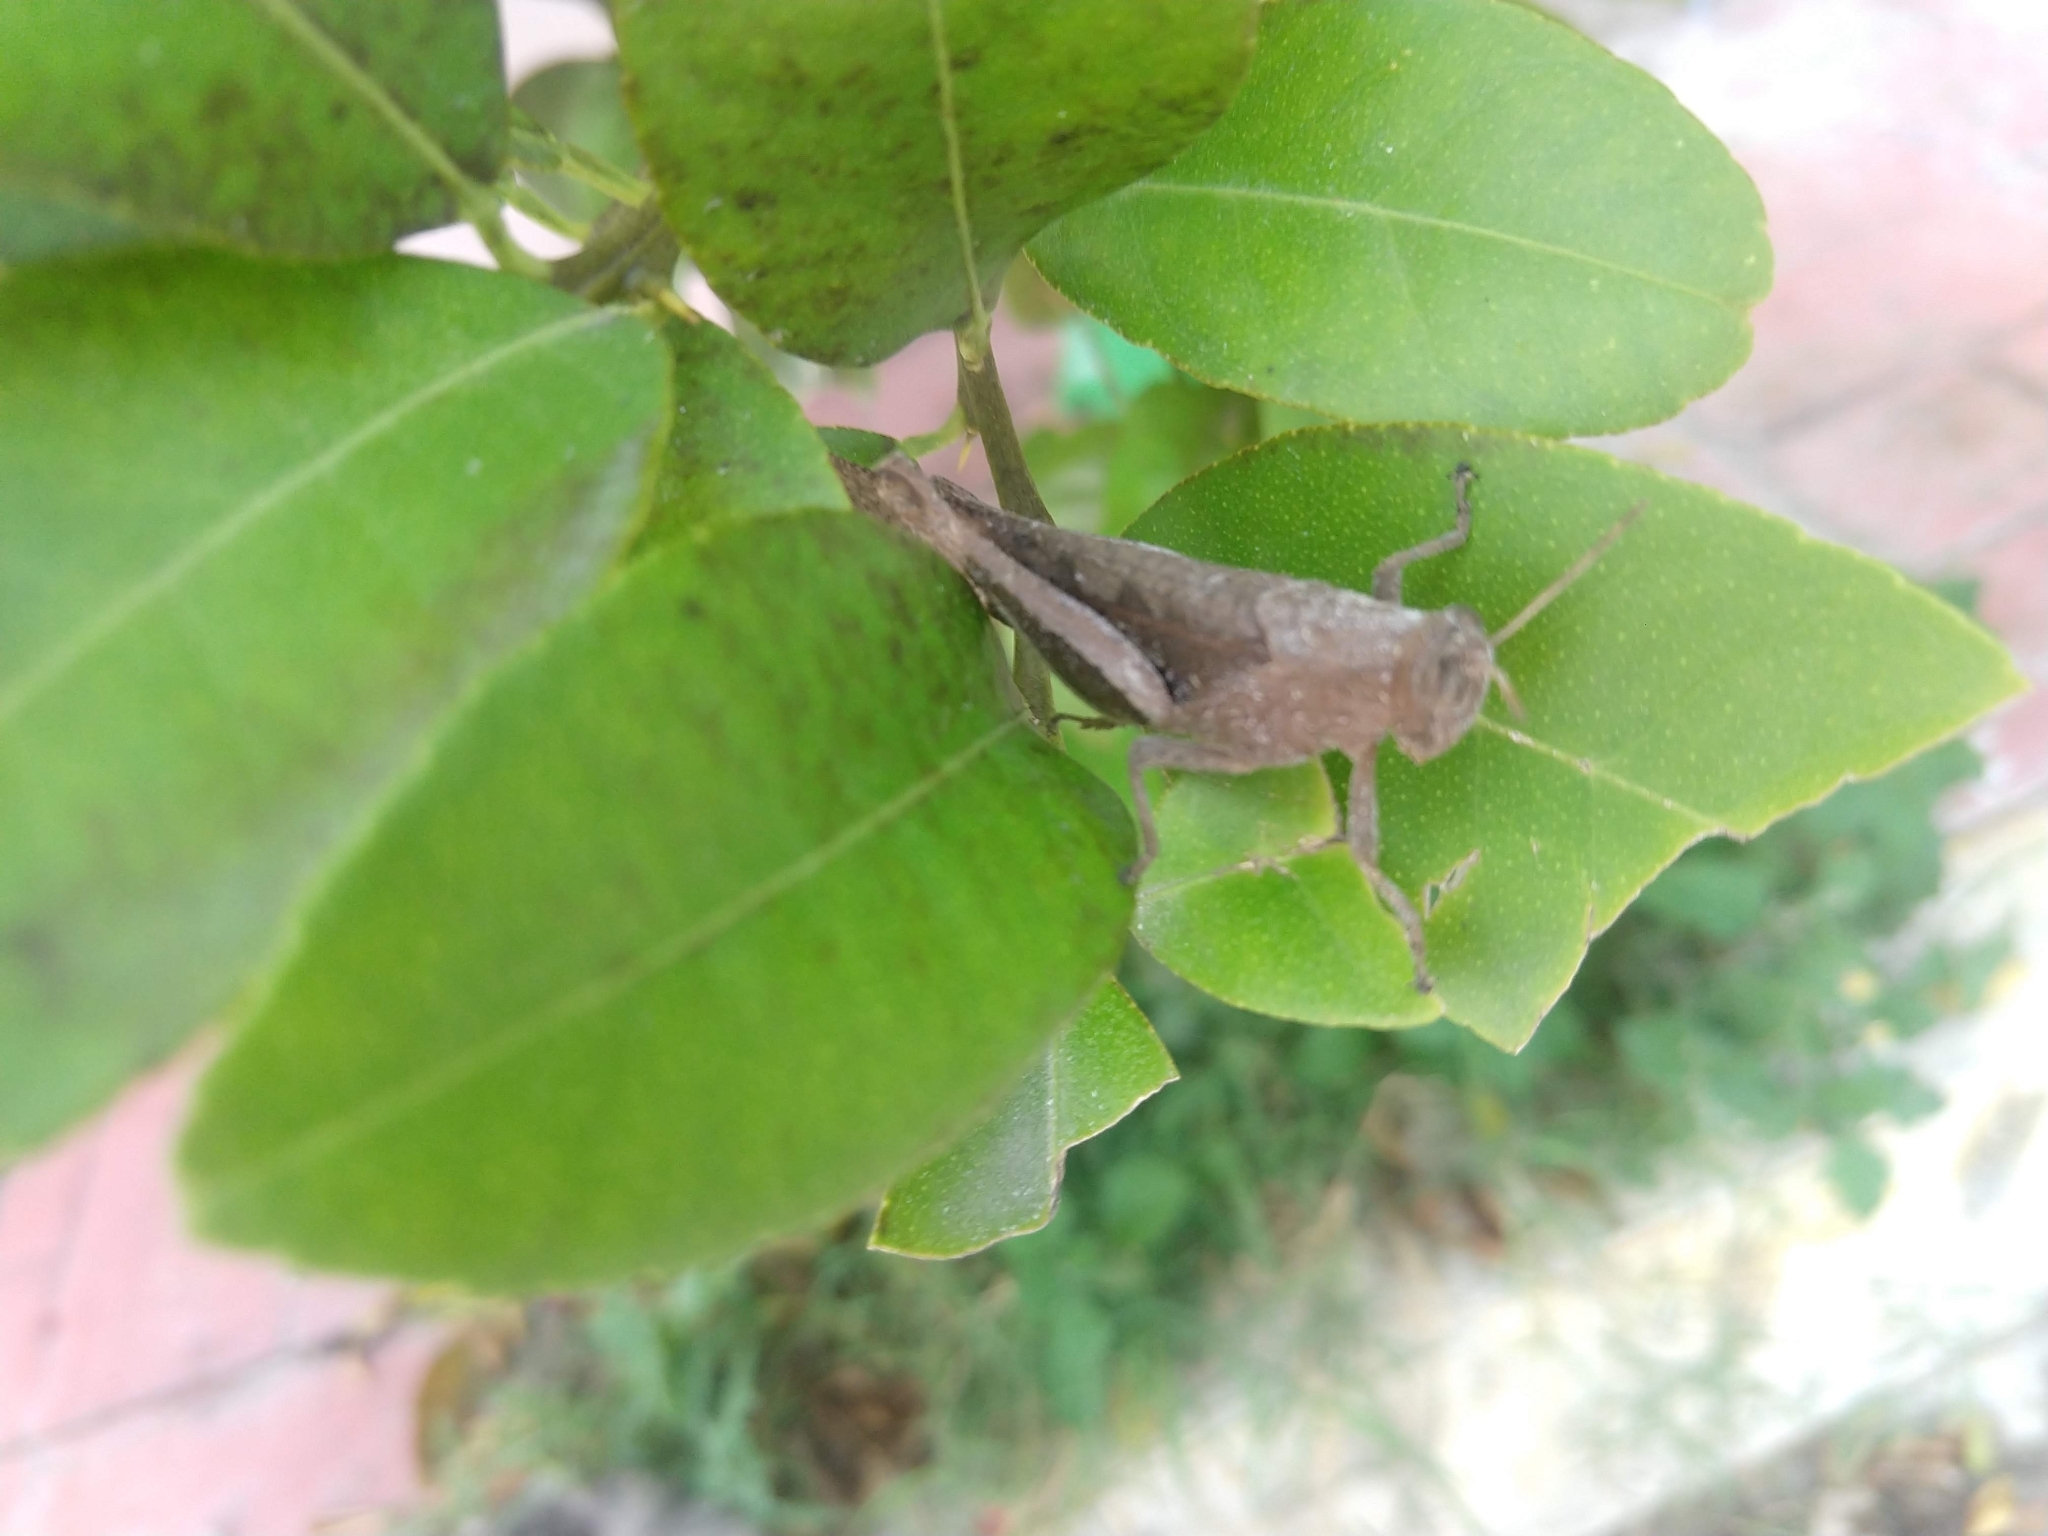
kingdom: Animalia
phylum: Arthropoda
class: Insecta
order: Orthoptera
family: Acrididae
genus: Abracris
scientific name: Abracris flavolineata
